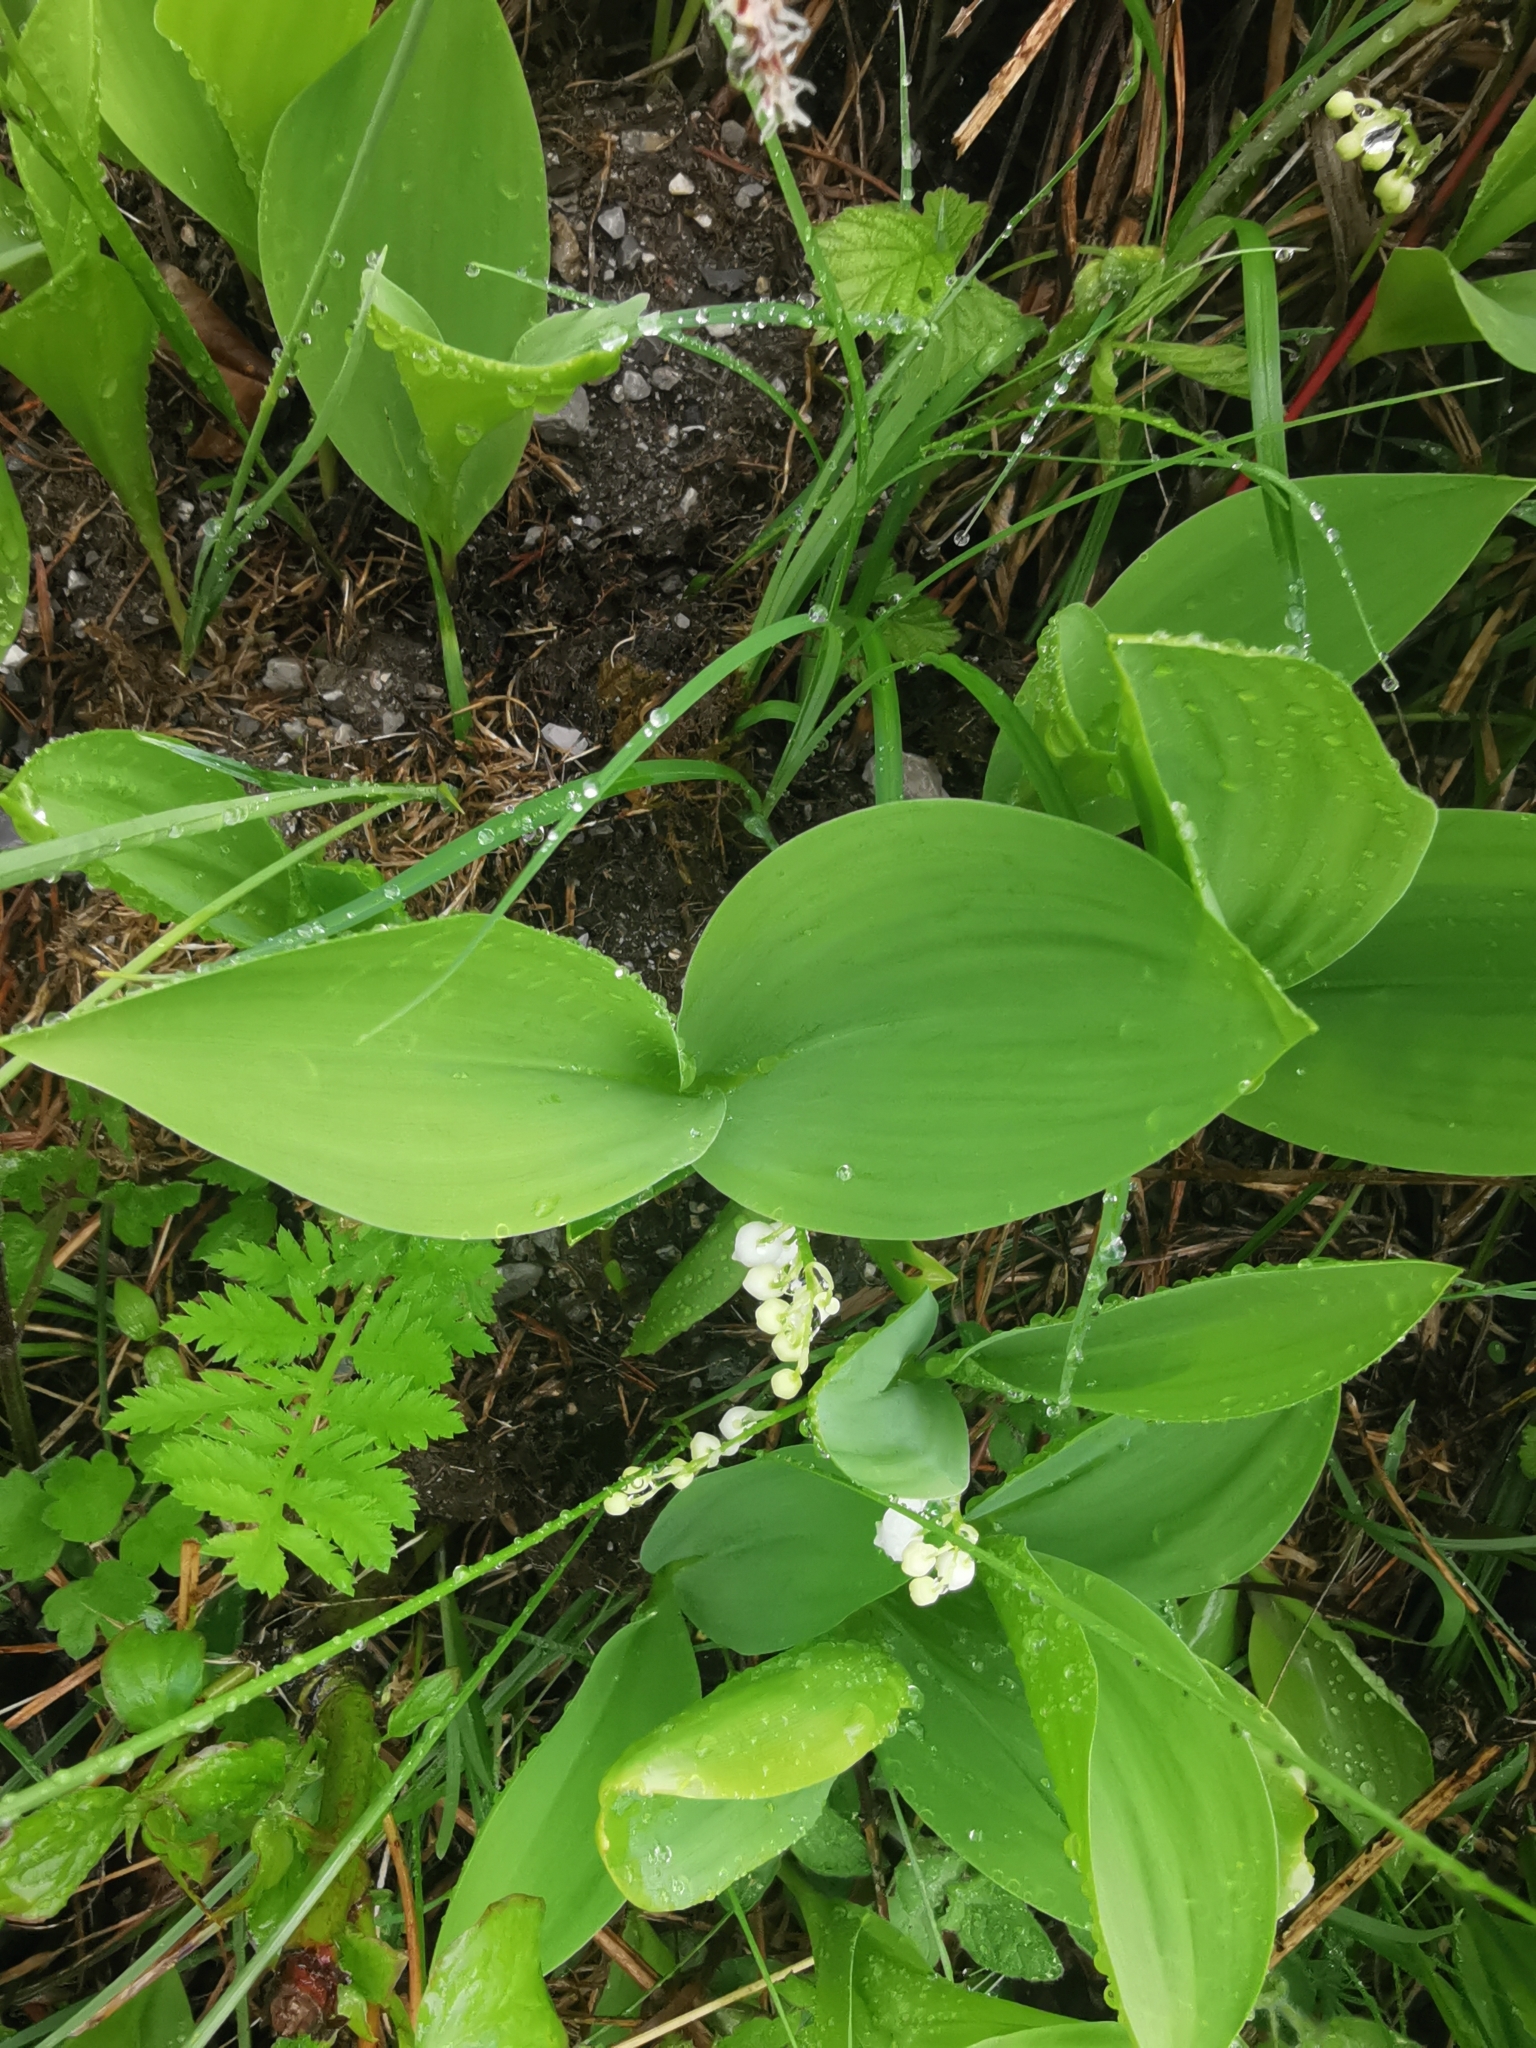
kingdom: Plantae
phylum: Tracheophyta
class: Liliopsida
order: Asparagales
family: Asparagaceae
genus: Convallaria
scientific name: Convallaria majalis
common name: Lily-of-the-valley
